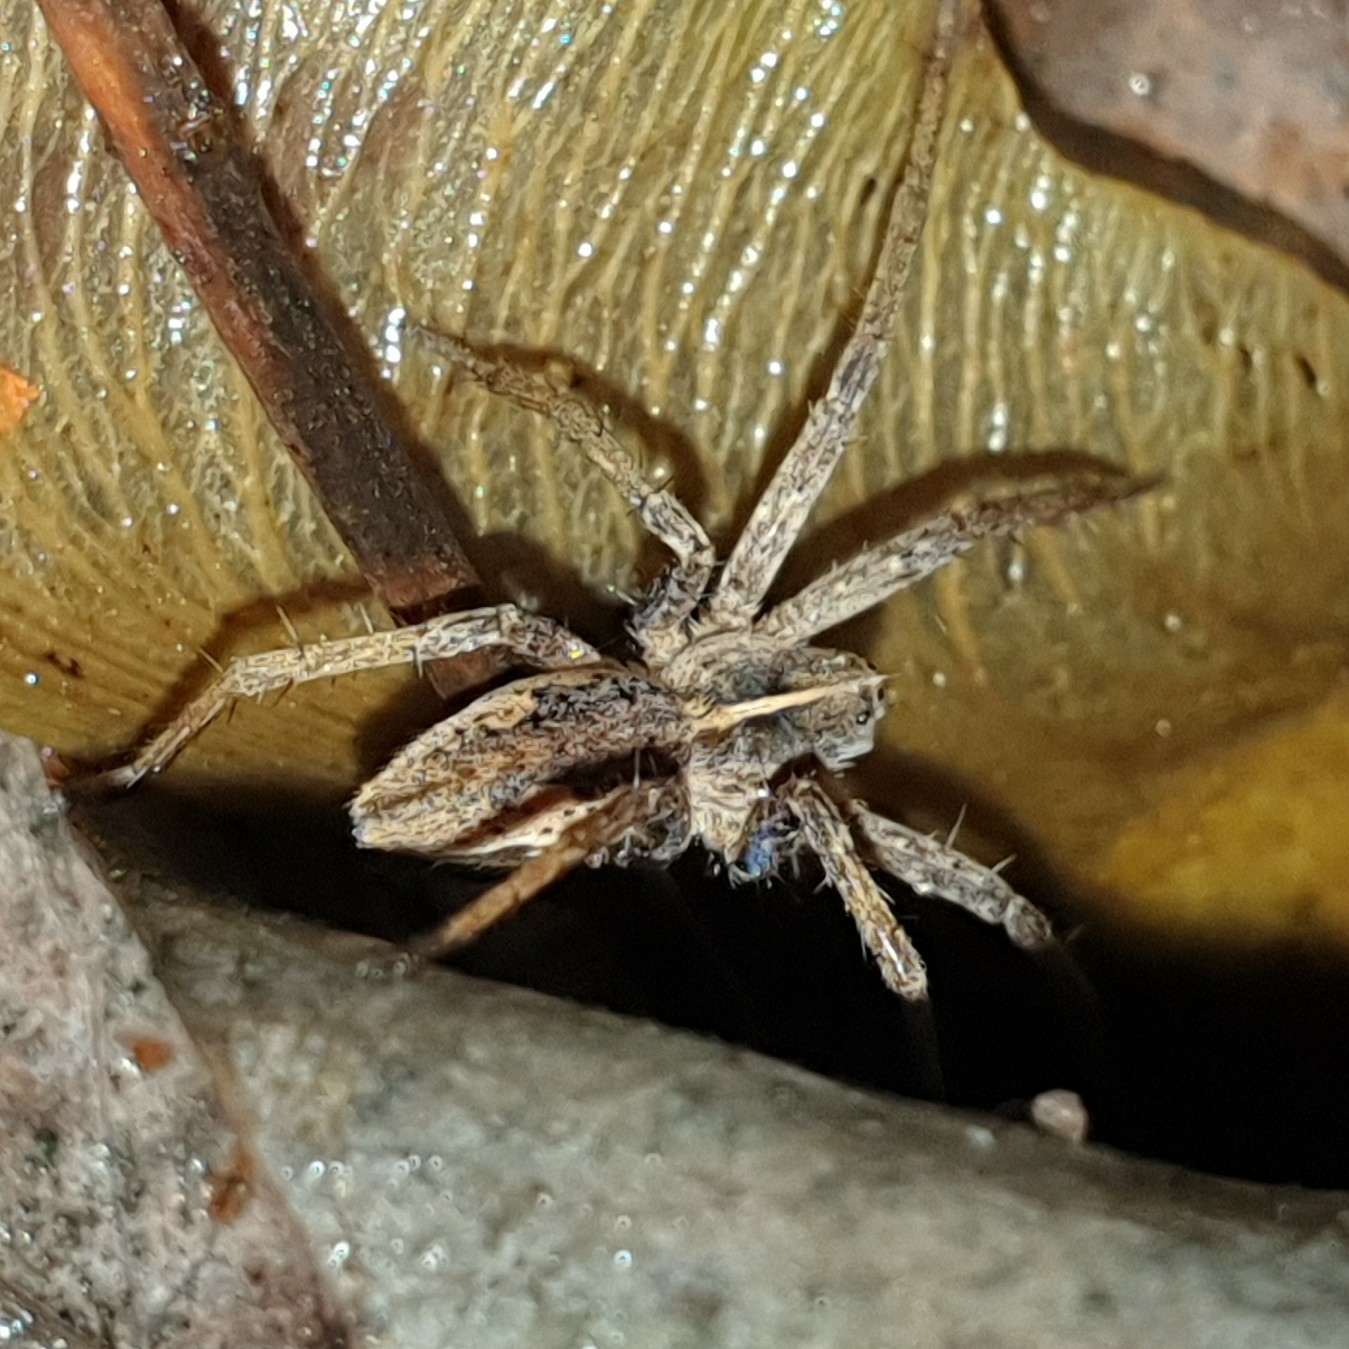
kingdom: Animalia
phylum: Arthropoda
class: Arachnida
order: Araneae
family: Pisauridae
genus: Pisaura
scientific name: Pisaura mirabilis
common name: Tent spider
